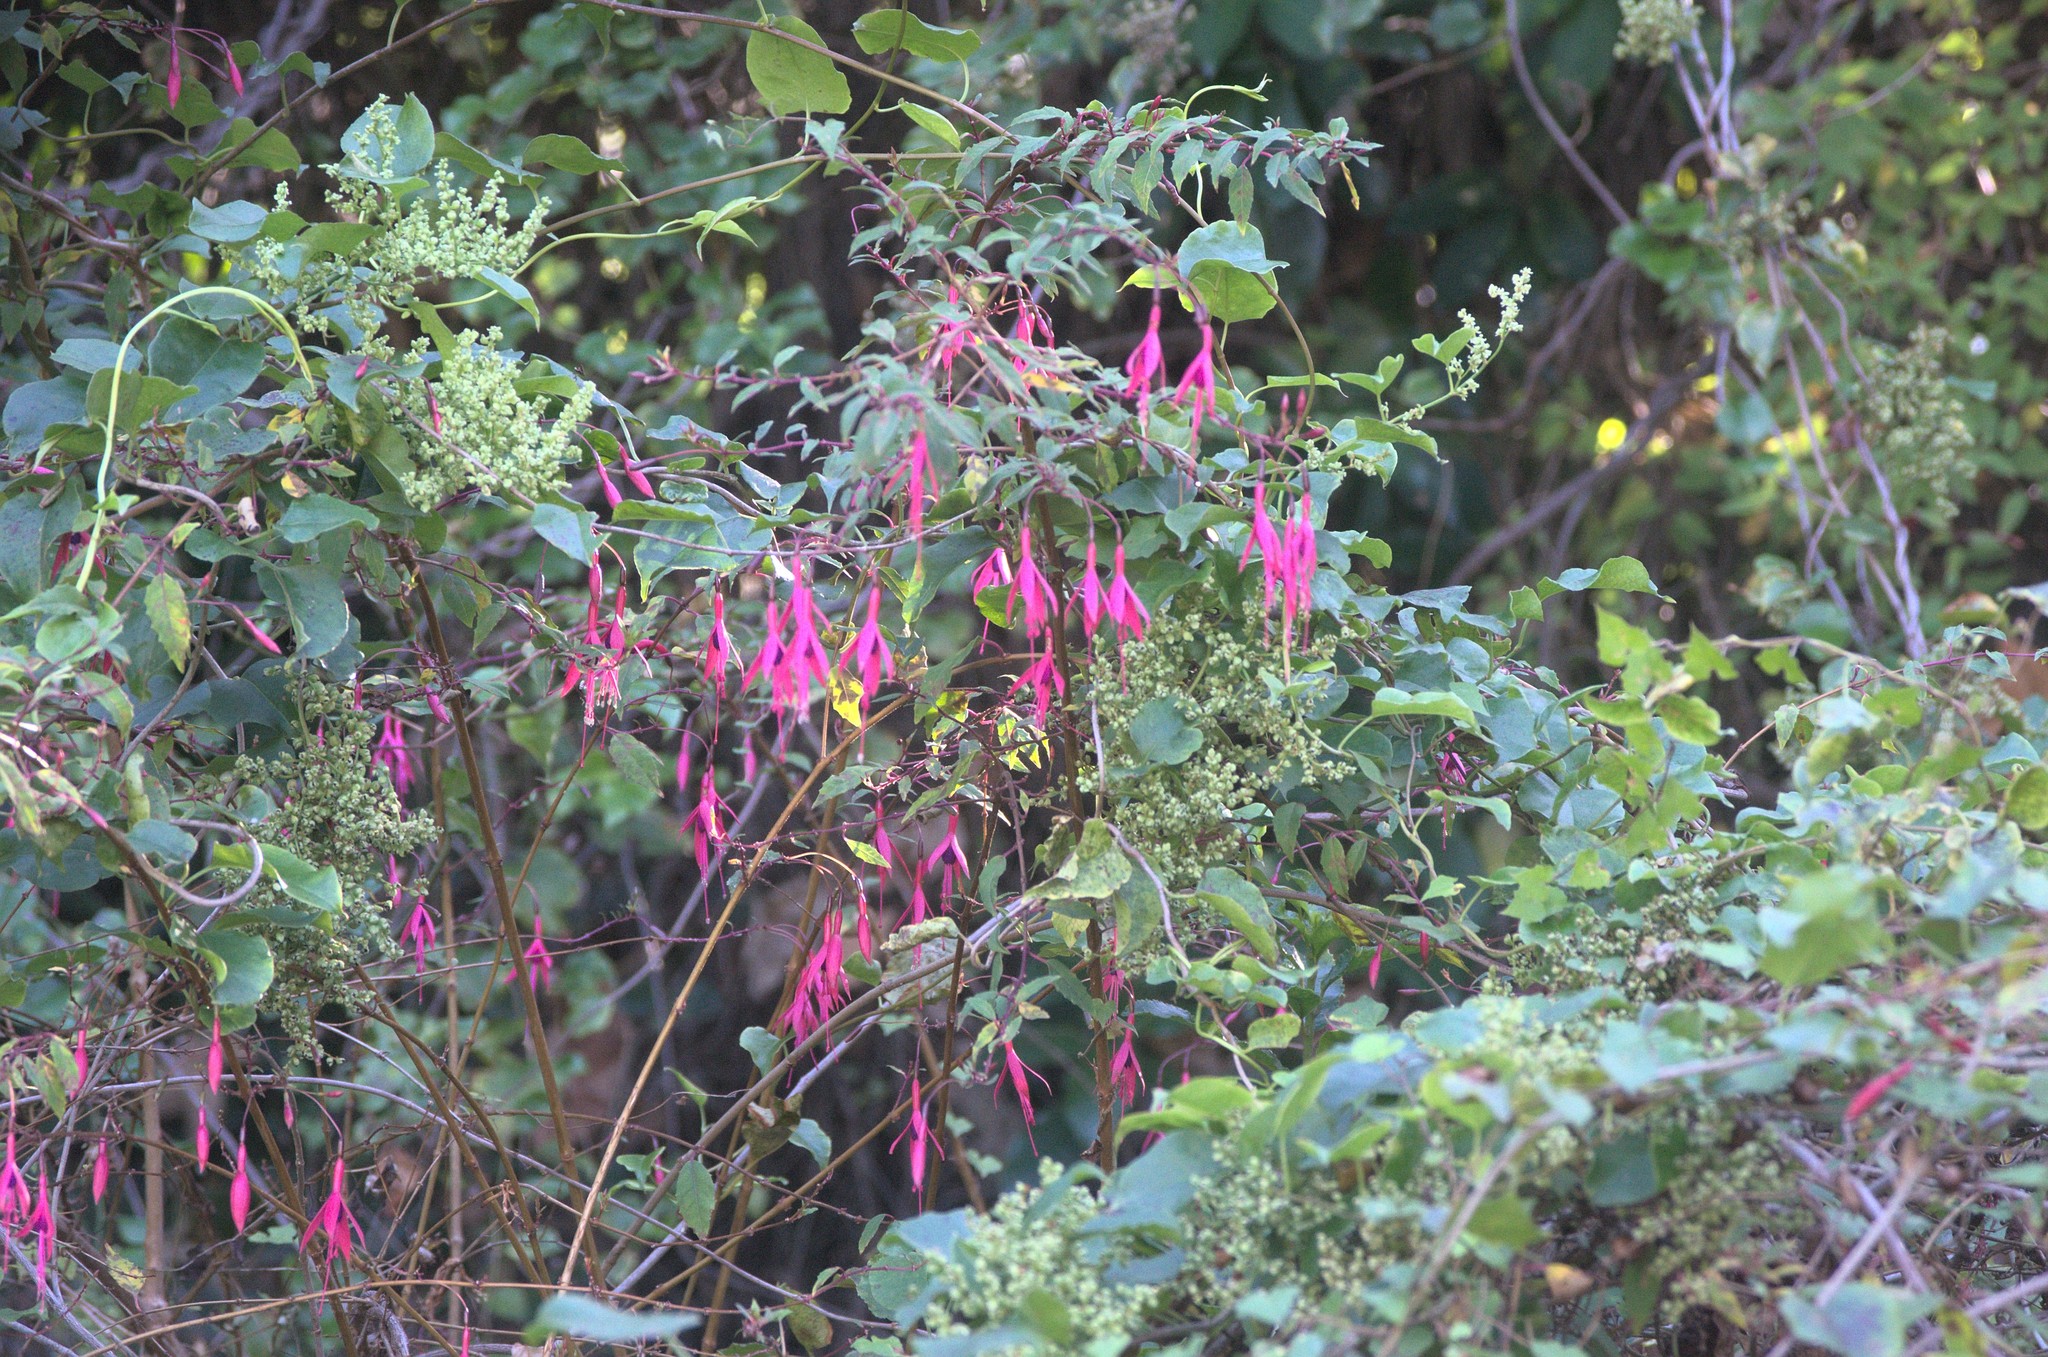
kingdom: Plantae
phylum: Tracheophyta
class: Magnoliopsida
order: Caryophyllales
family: Polygonaceae
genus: Muehlenbeckia
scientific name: Muehlenbeckia australis
